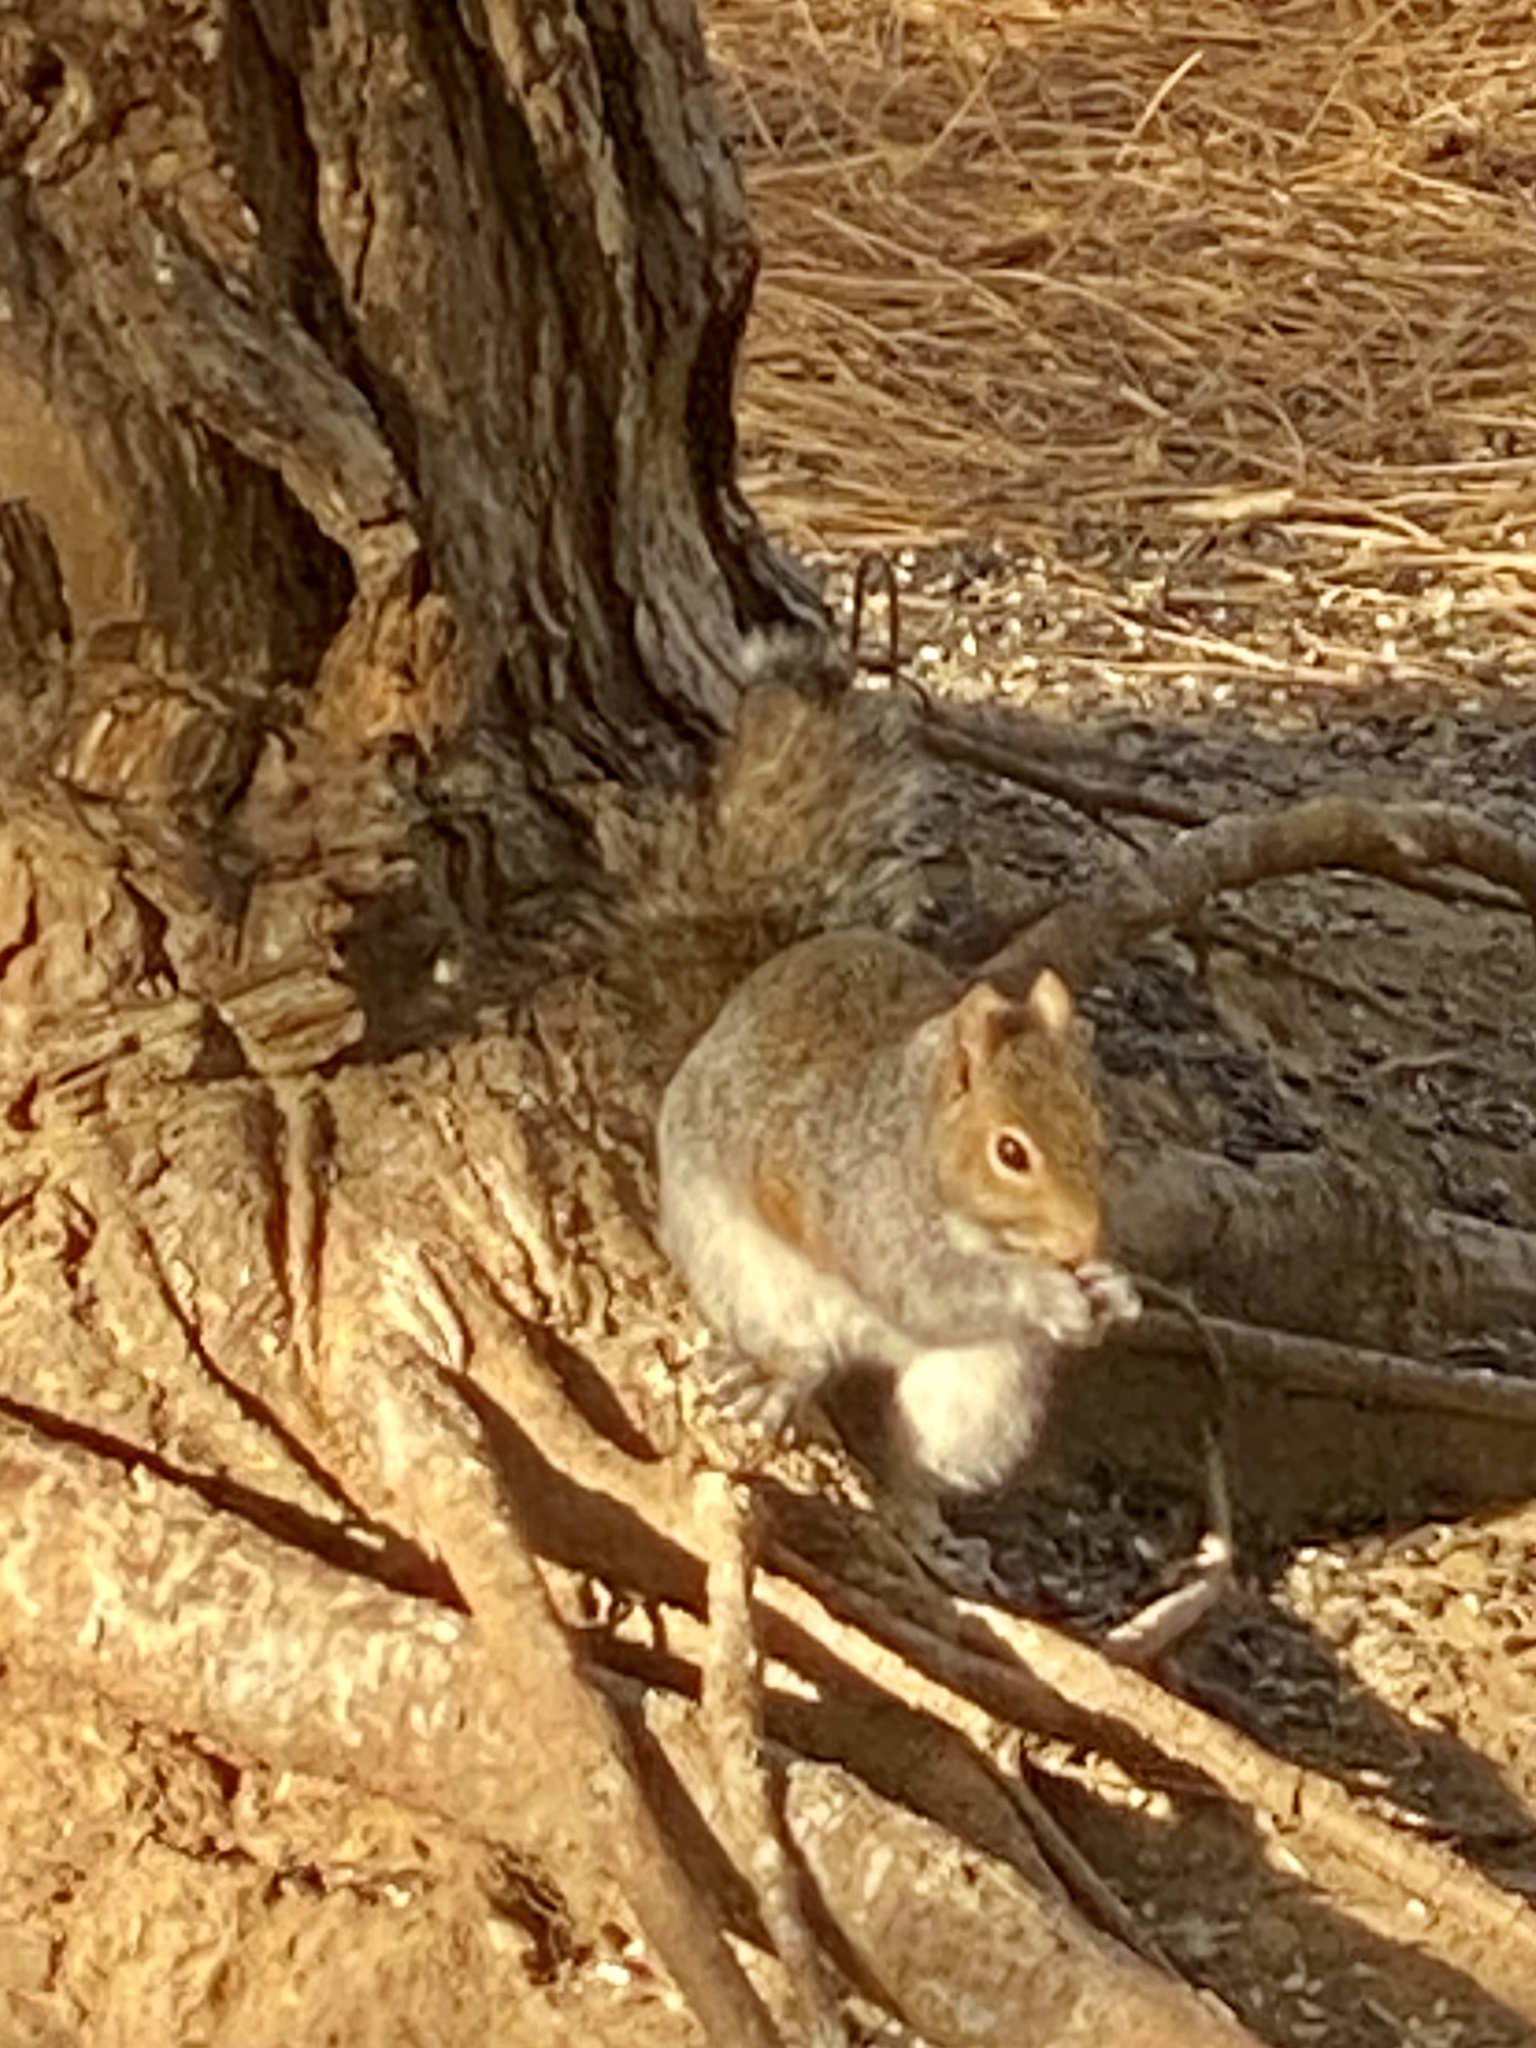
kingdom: Animalia
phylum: Chordata
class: Mammalia
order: Rodentia
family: Sciuridae
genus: Sciurus
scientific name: Sciurus carolinensis
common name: Eastern gray squirrel
